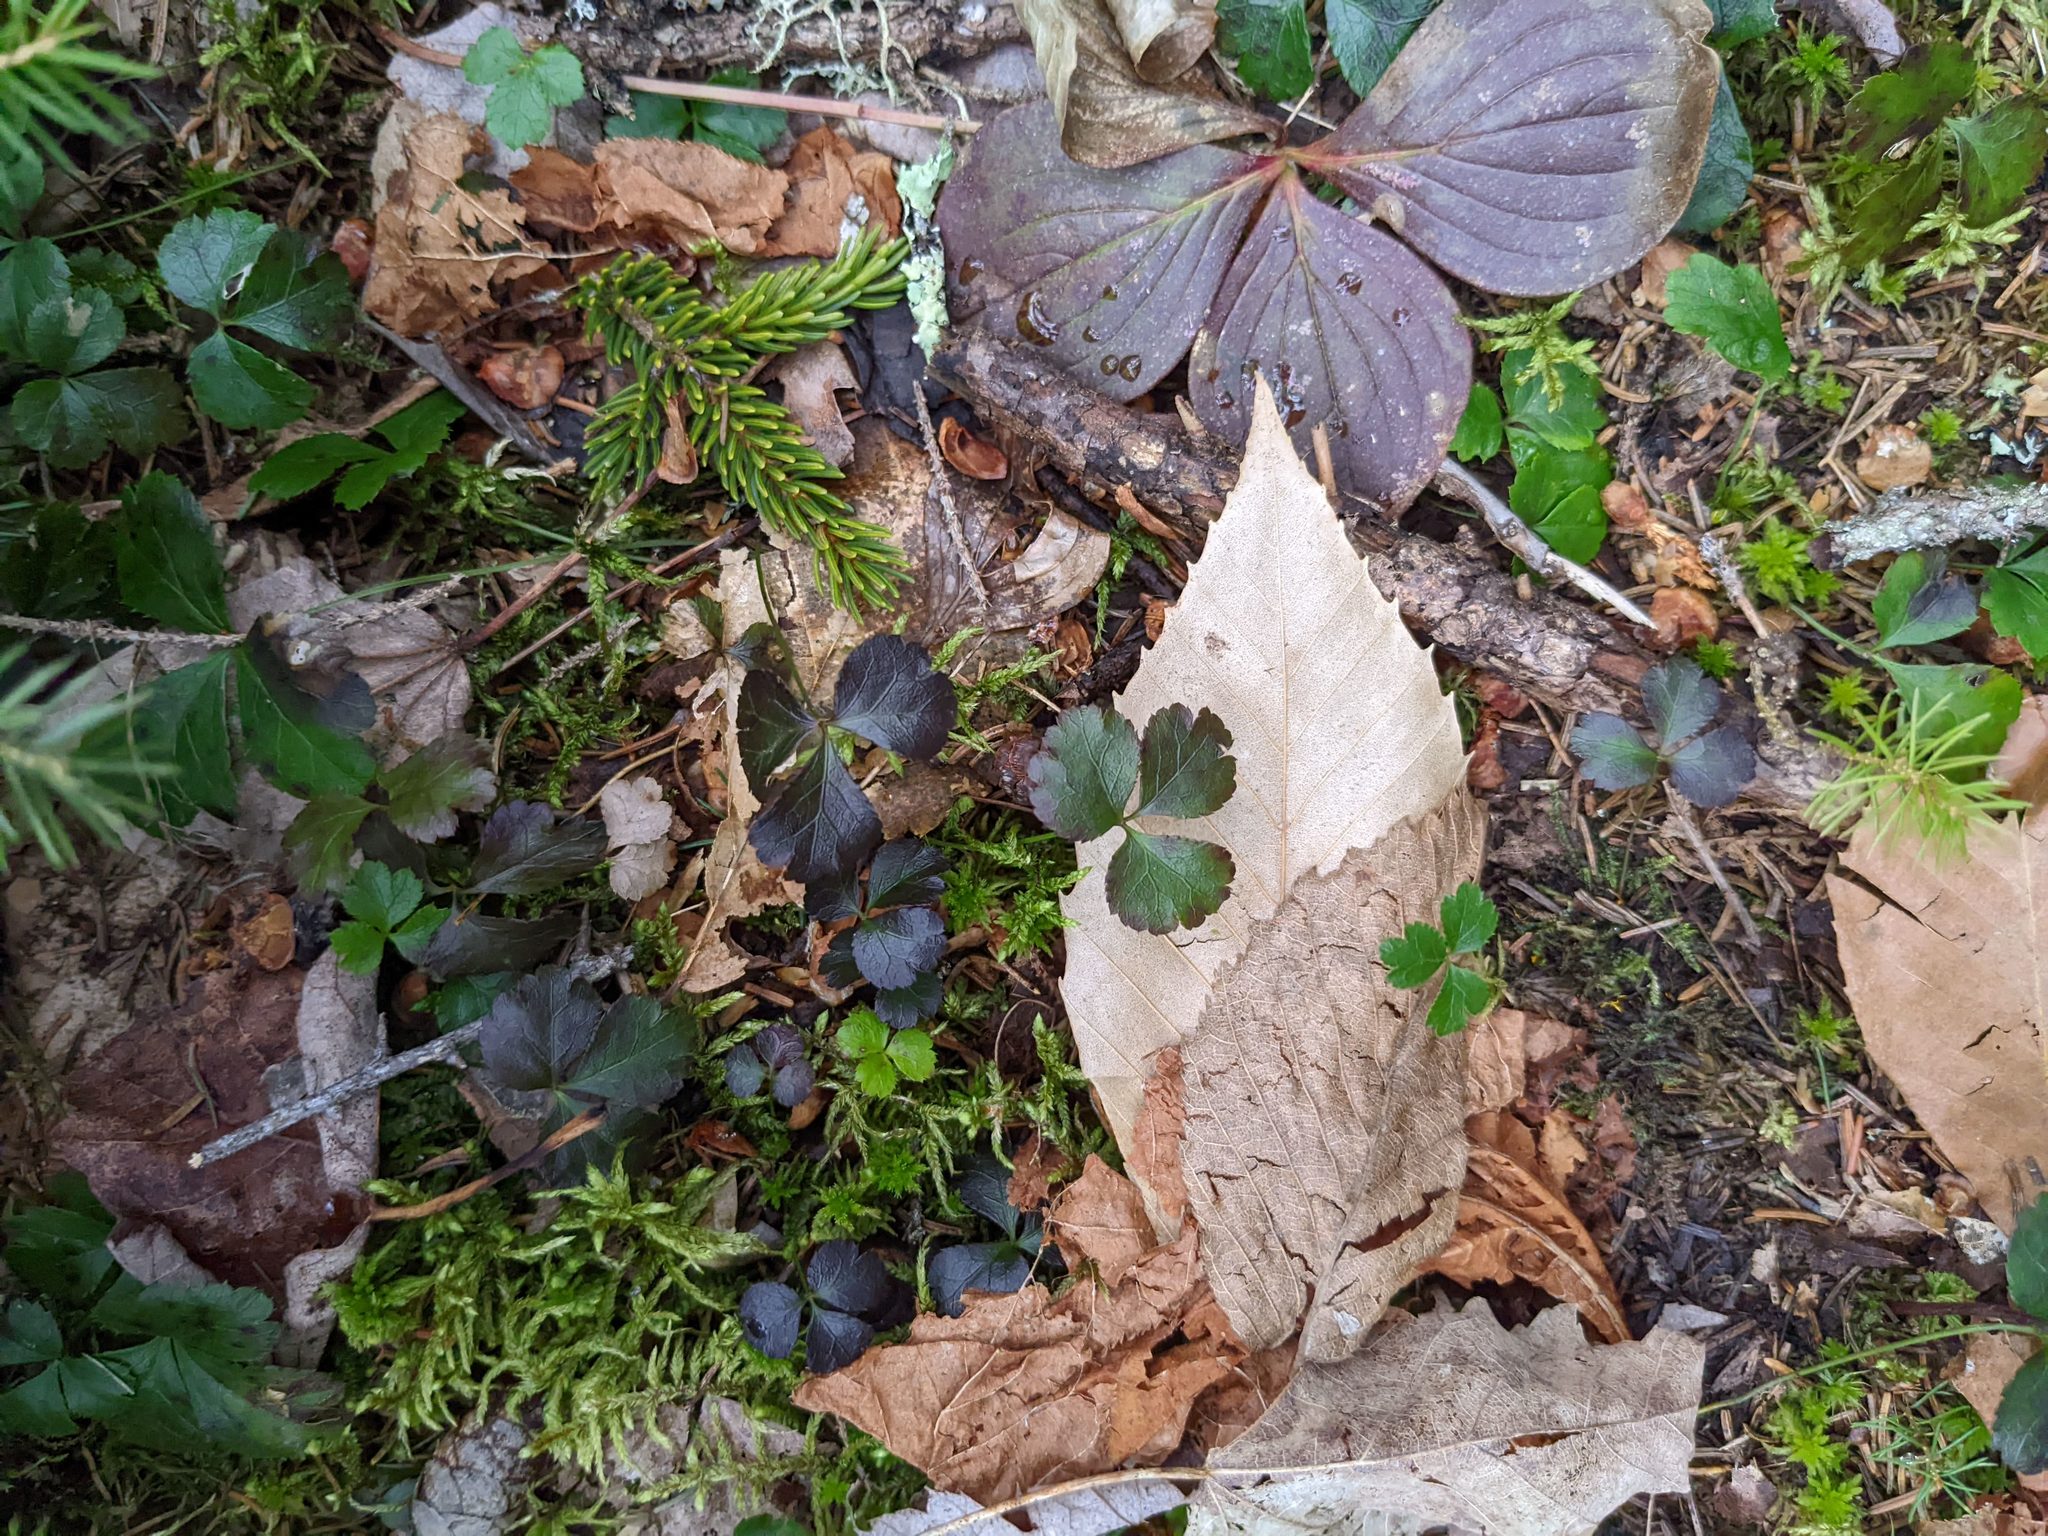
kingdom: Plantae
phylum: Tracheophyta
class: Magnoliopsida
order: Cornales
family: Cornaceae
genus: Cornus
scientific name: Cornus canadensis
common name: Creeping dogwood
